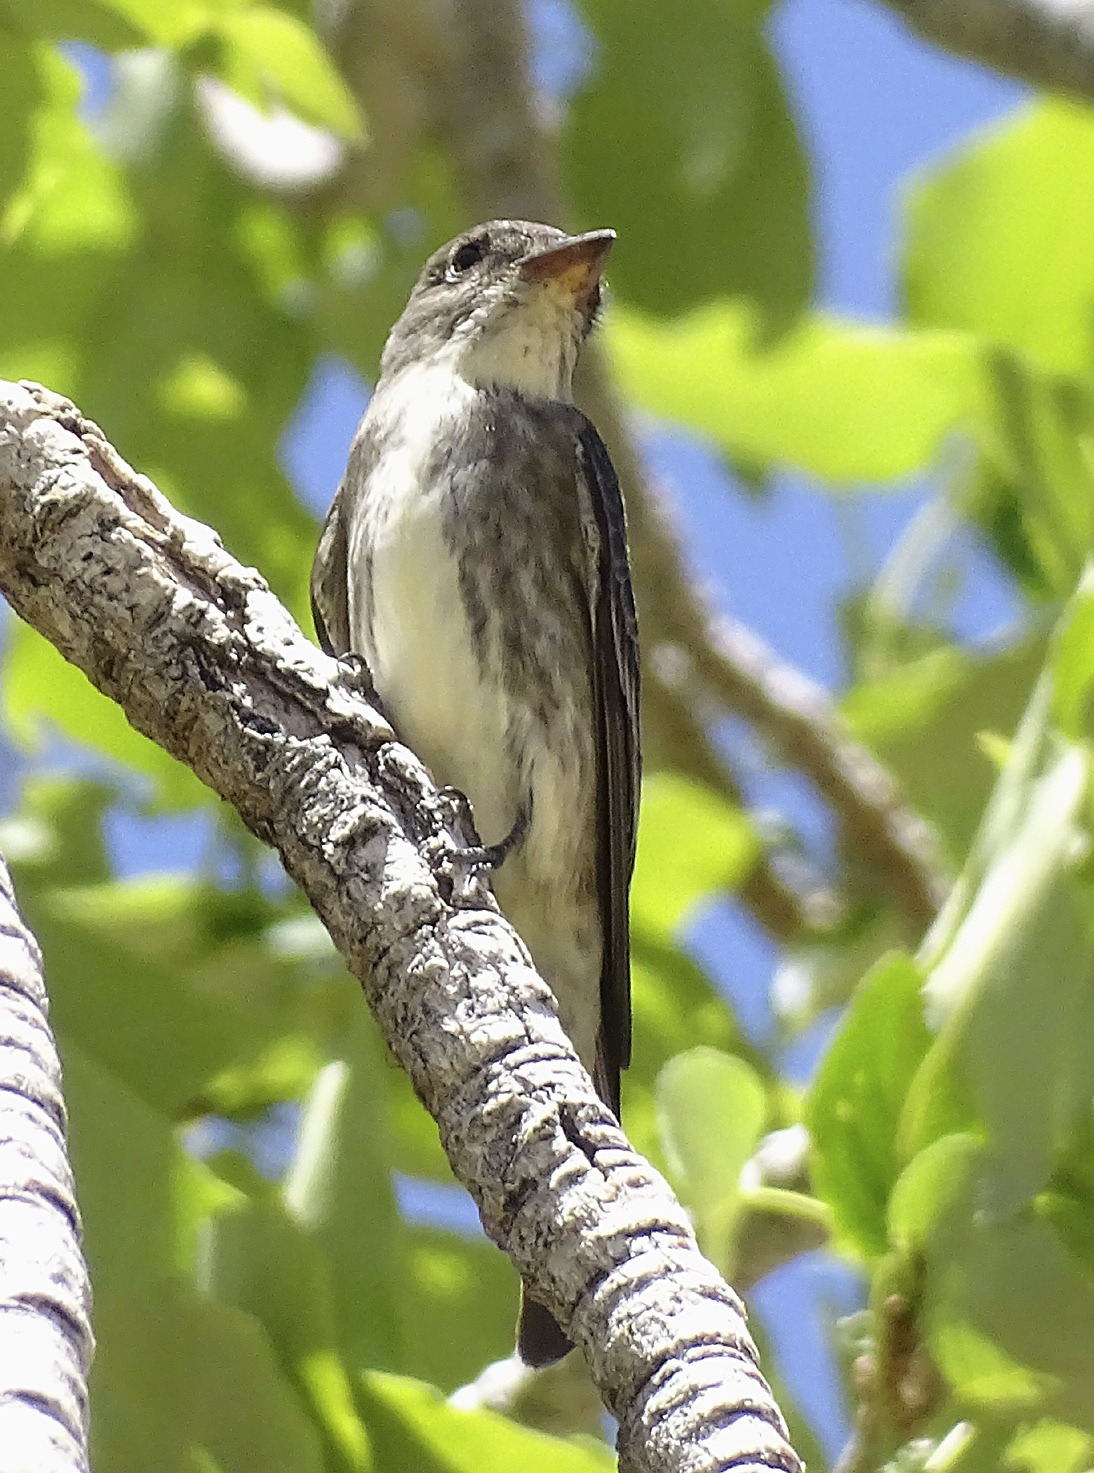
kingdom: Animalia
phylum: Chordata
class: Aves
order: Passeriformes
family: Tyrannidae
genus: Contopus
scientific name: Contopus cooperi
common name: Olive-sided flycatcher
